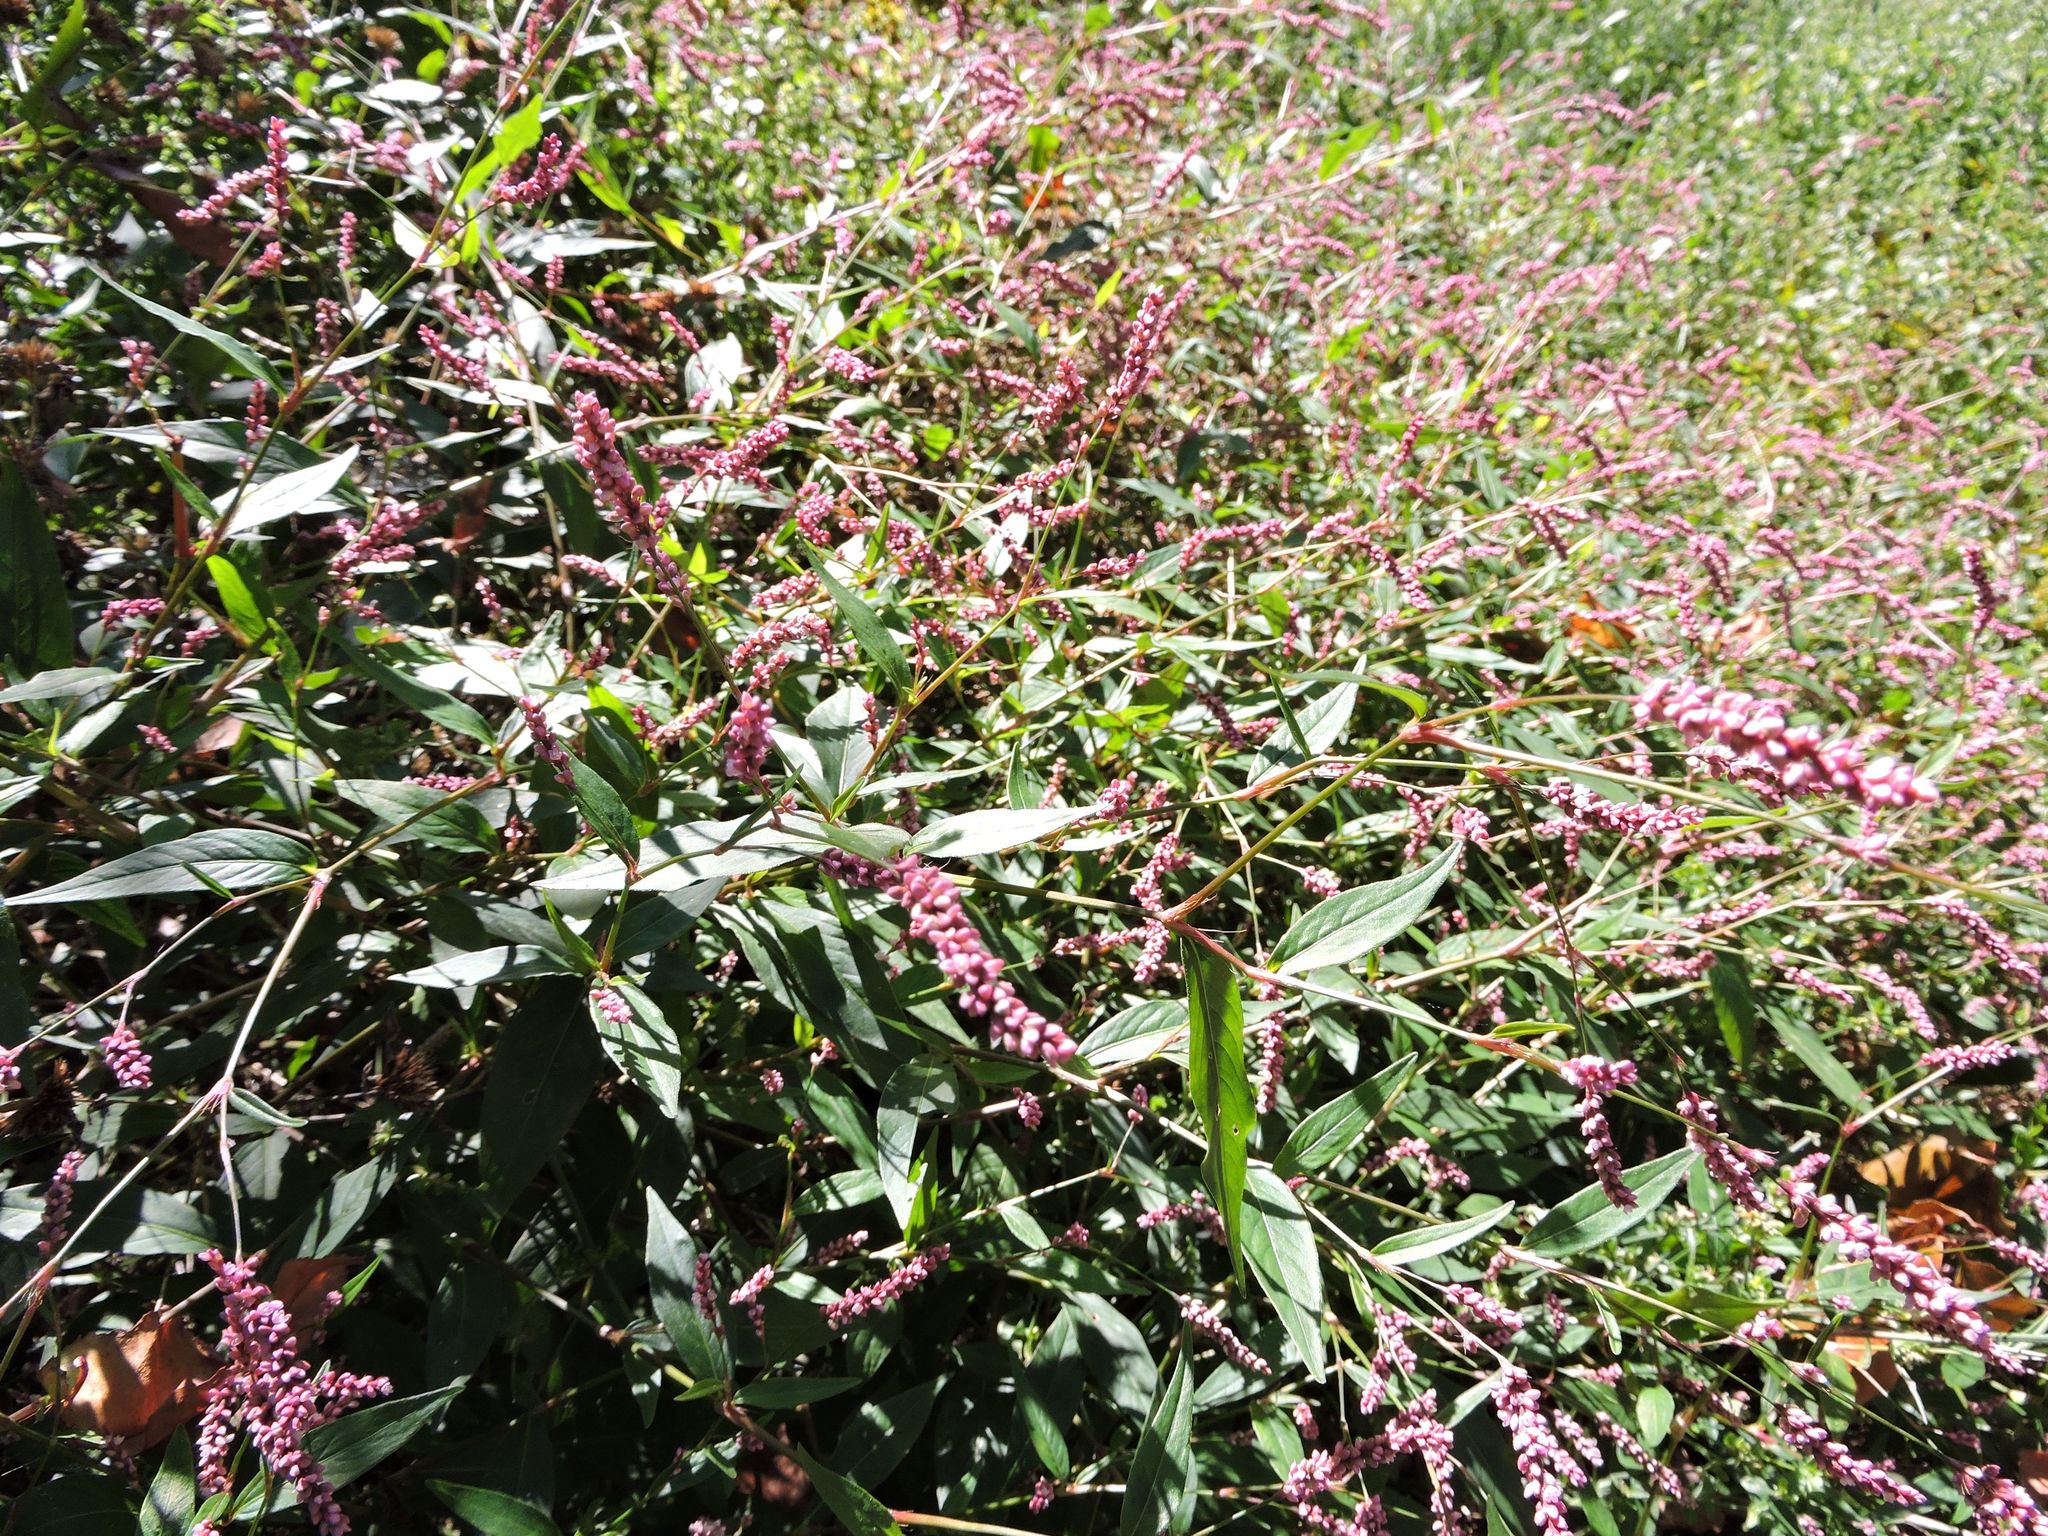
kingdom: Plantae
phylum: Tracheophyta
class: Magnoliopsida
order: Caryophyllales
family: Polygonaceae
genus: Persicaria
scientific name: Persicaria longiseta
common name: Bristly lady's-thumb
